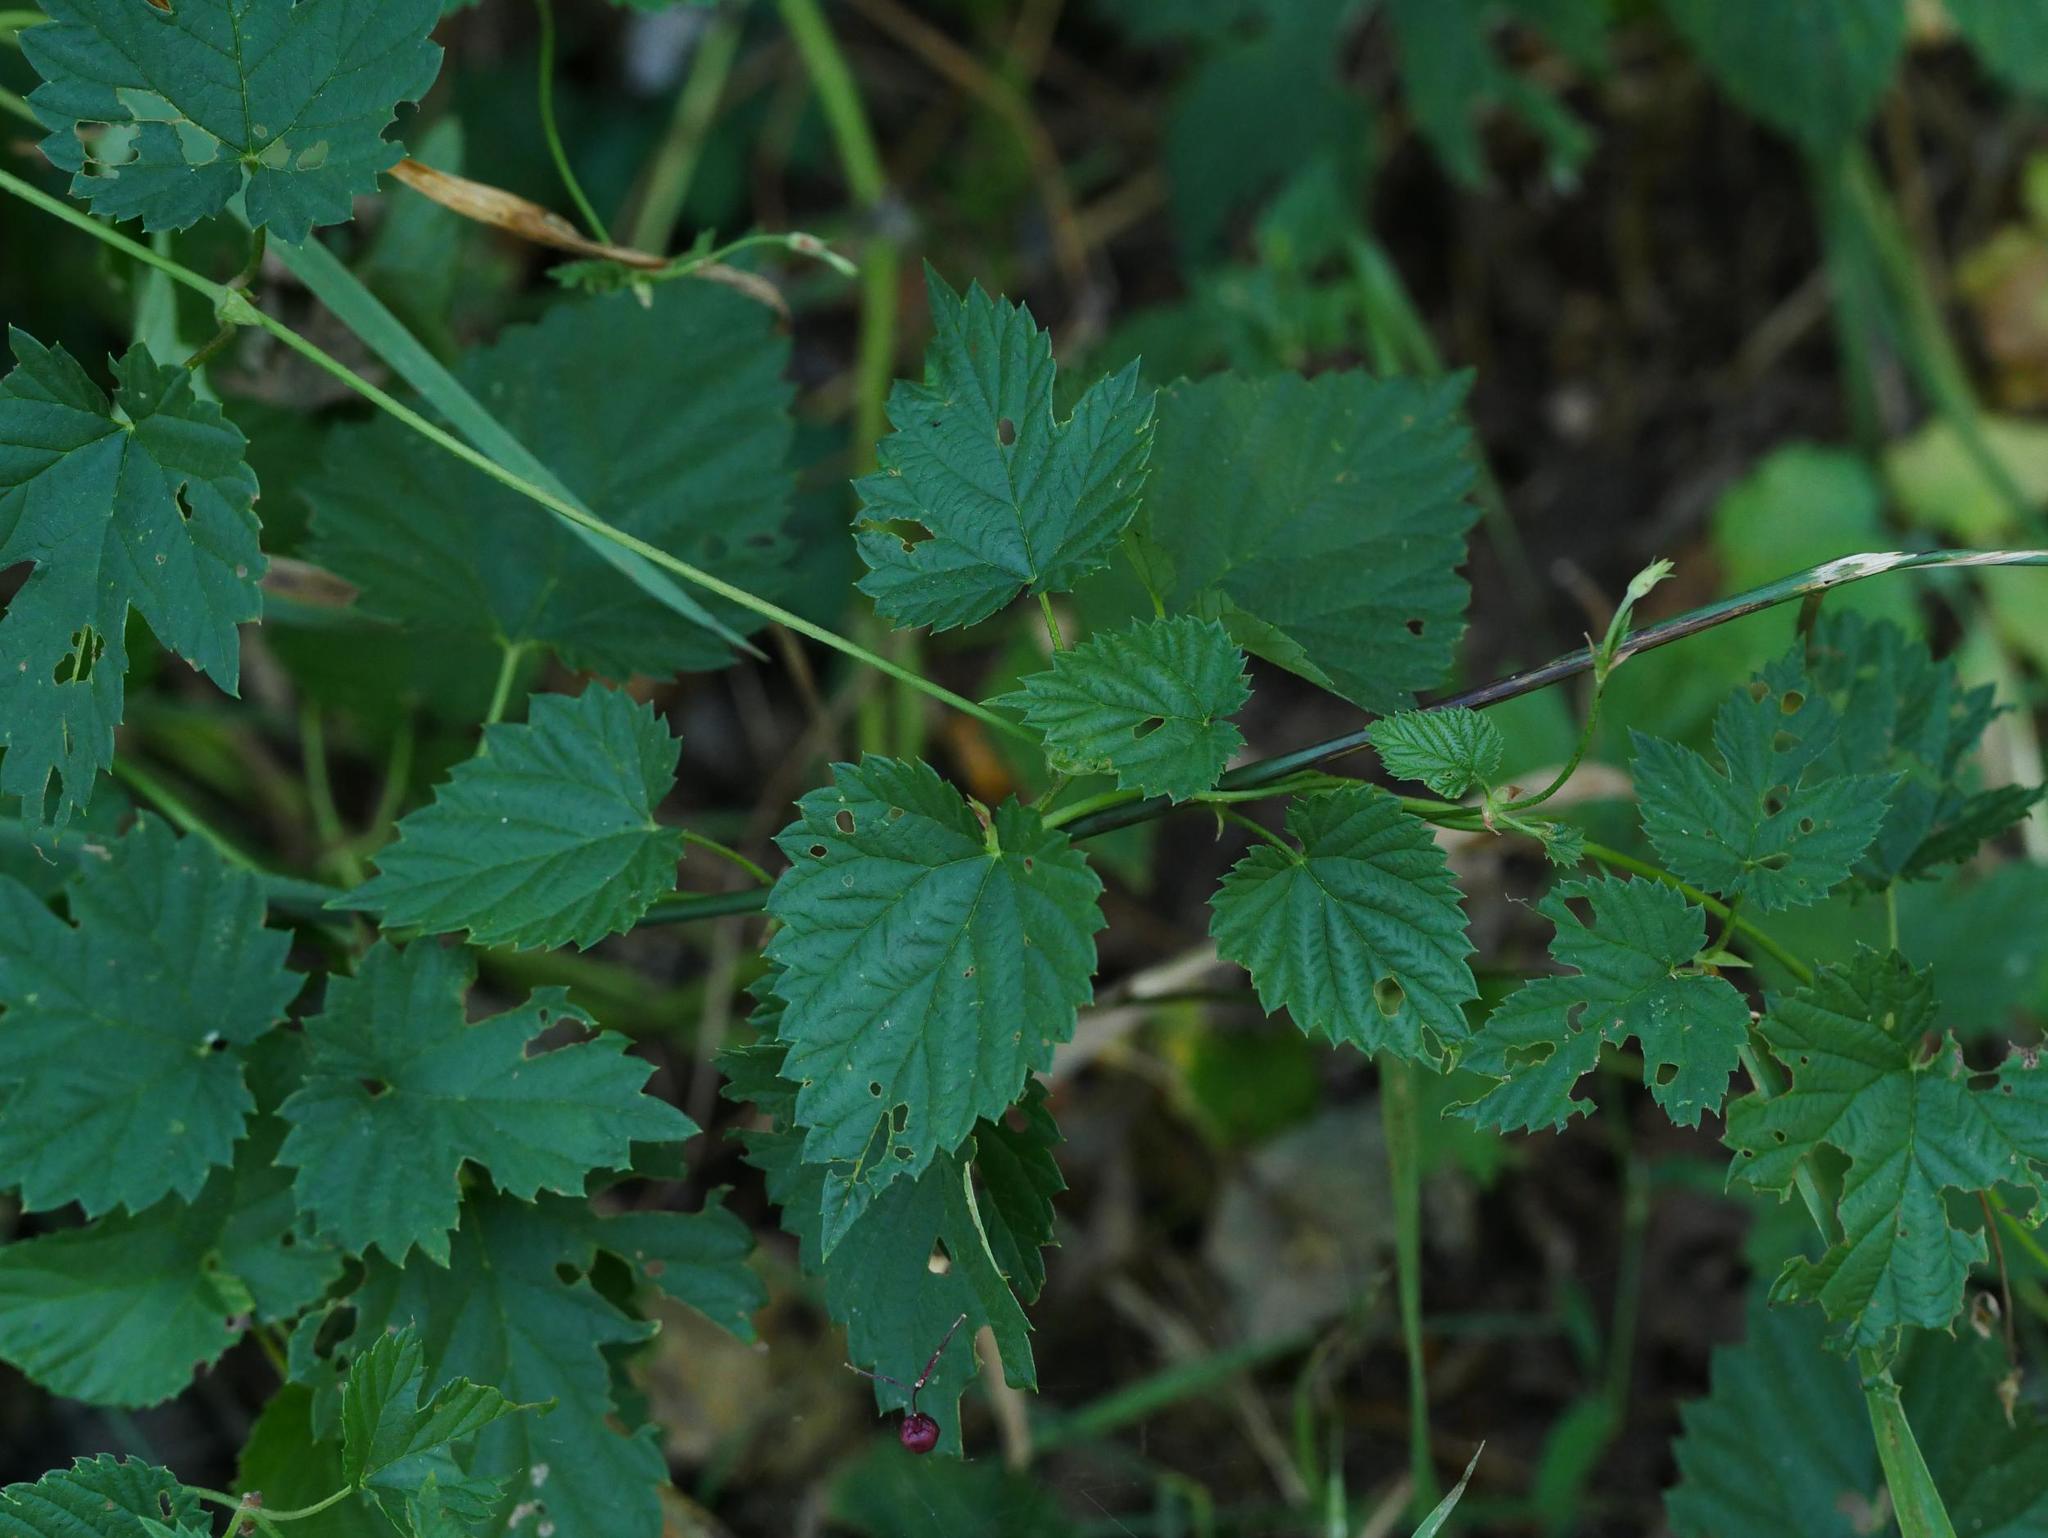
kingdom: Plantae
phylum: Tracheophyta
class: Magnoliopsida
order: Rosales
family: Cannabaceae
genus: Humulus
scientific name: Humulus lupulus
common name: Hop
